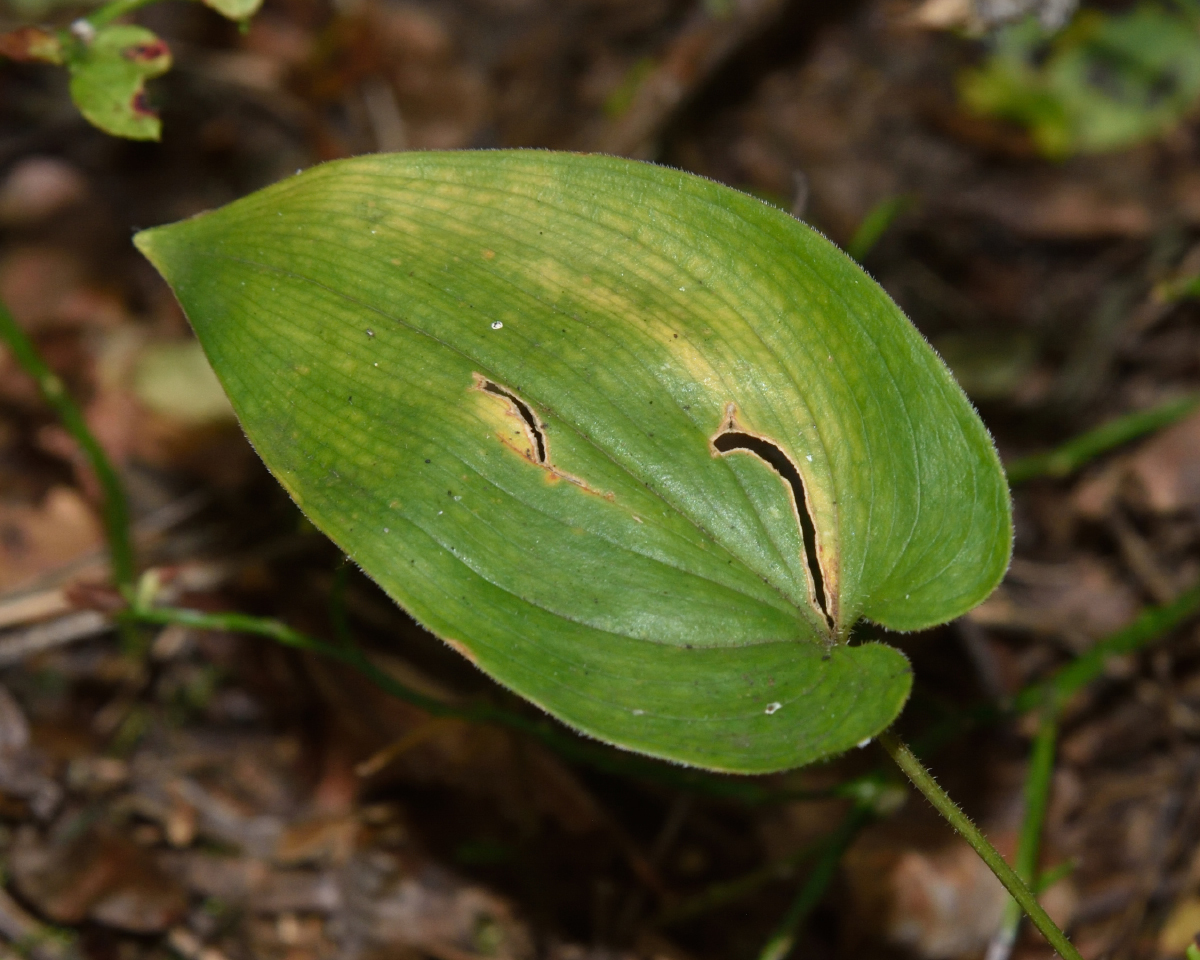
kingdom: Plantae
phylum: Tracheophyta
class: Liliopsida
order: Asparagales
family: Asparagaceae
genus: Maianthemum
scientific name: Maianthemum bifolium
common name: May lily
